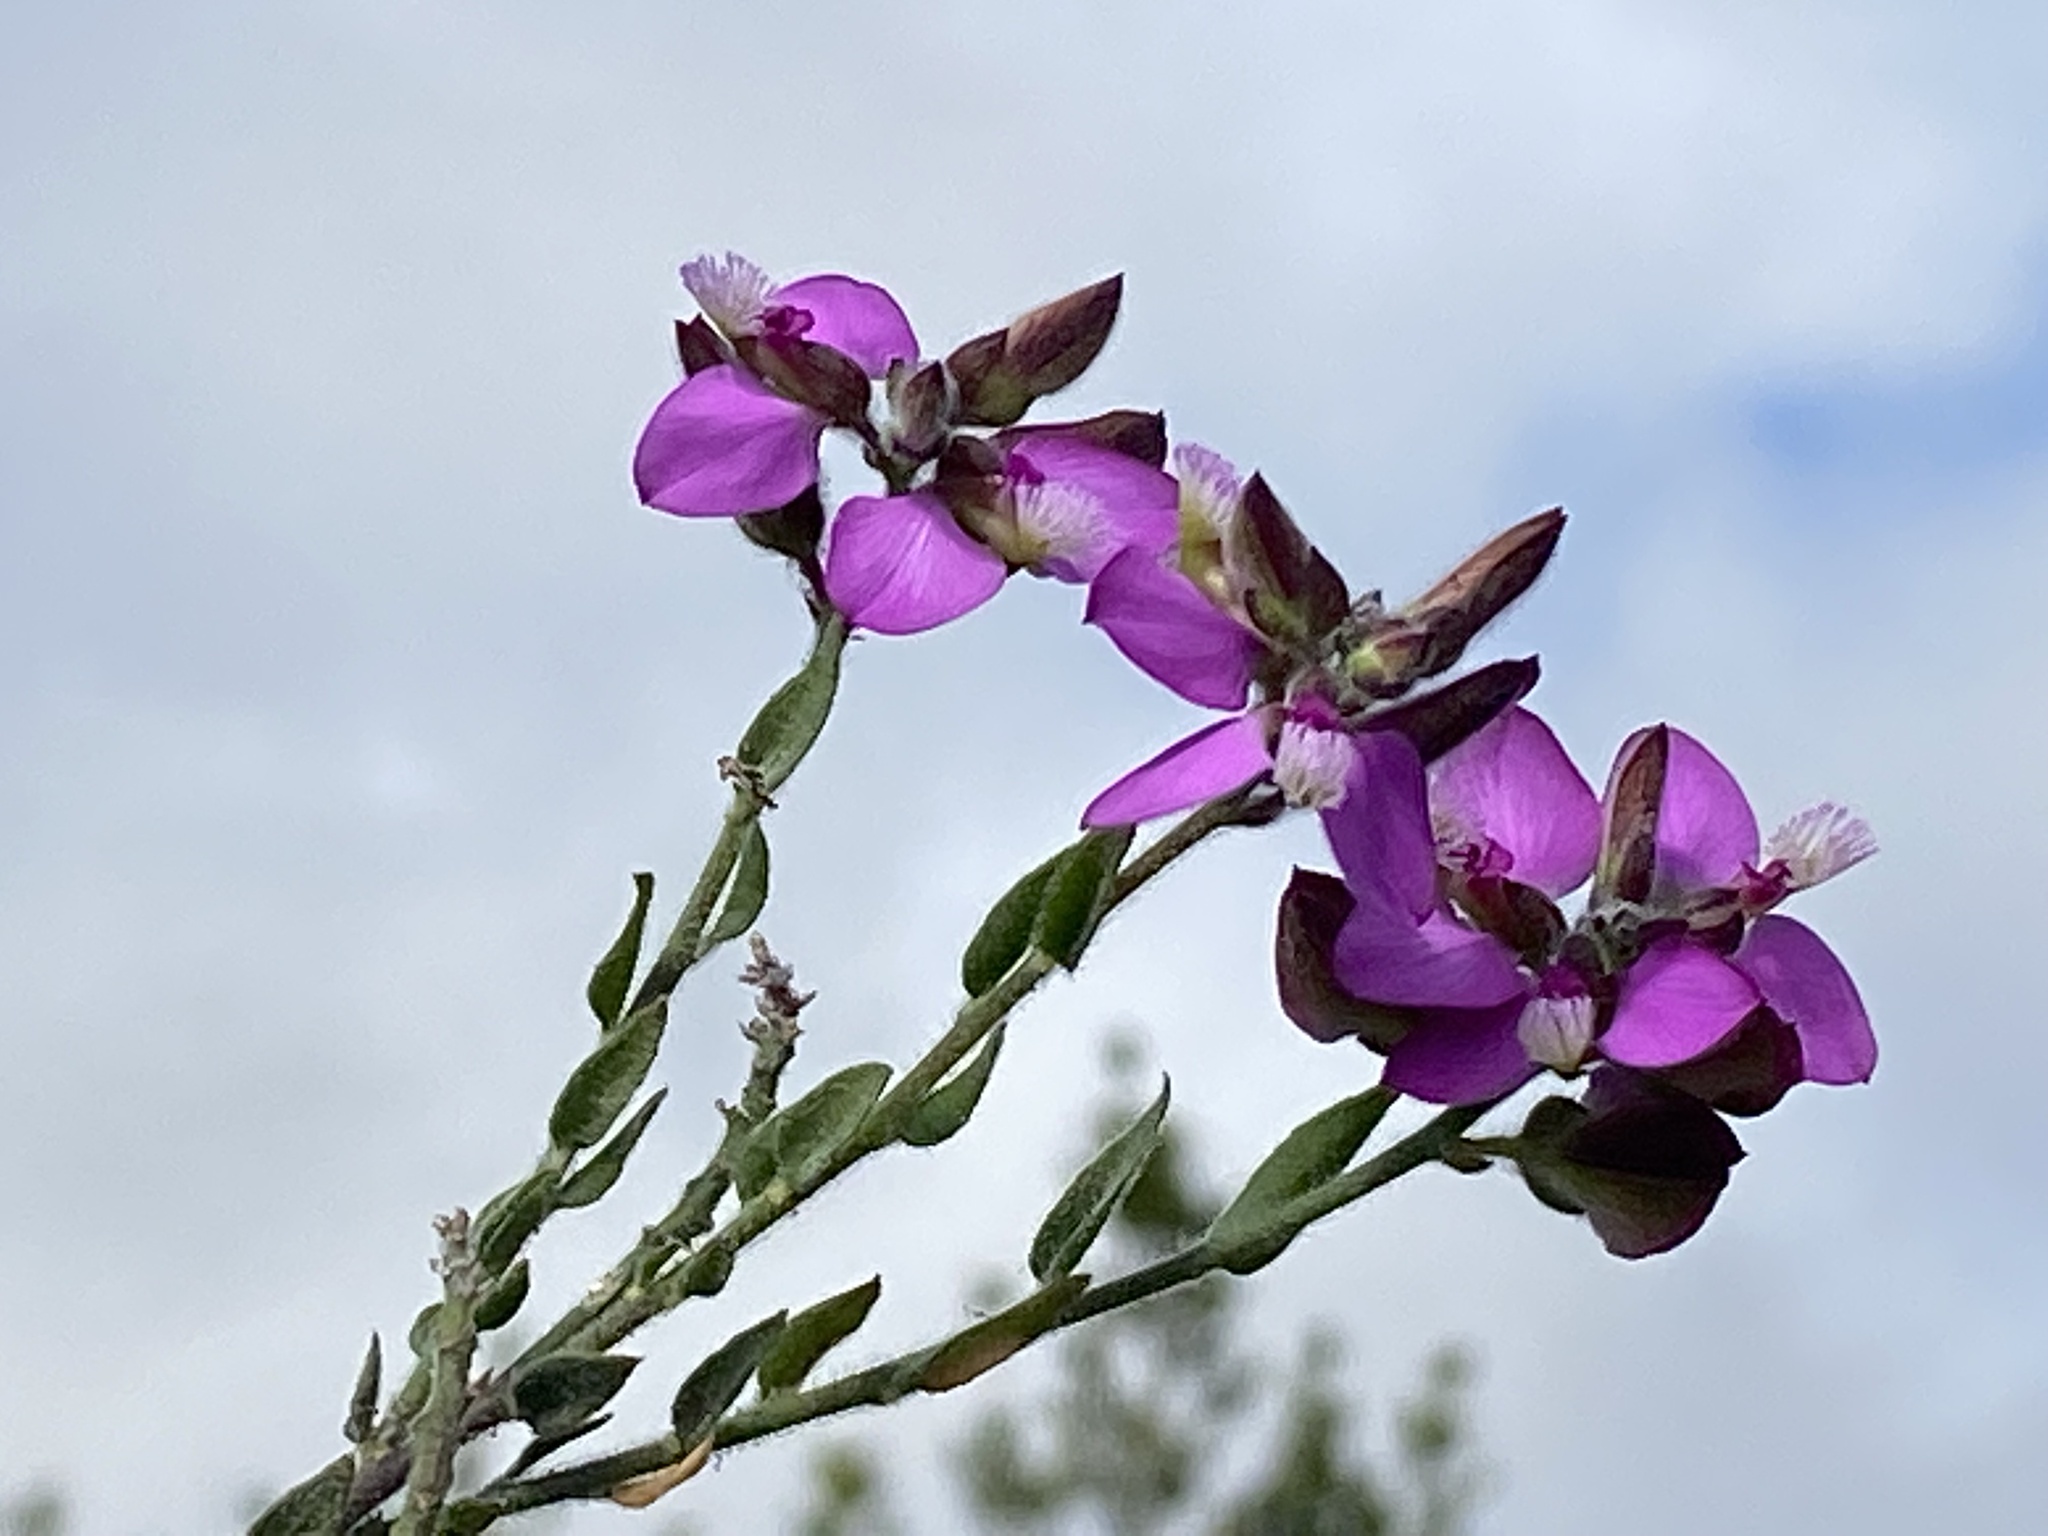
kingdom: Plantae
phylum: Tracheophyta
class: Magnoliopsida
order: Fabales
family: Polygalaceae
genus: Polygala
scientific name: Polygala pubiflora
